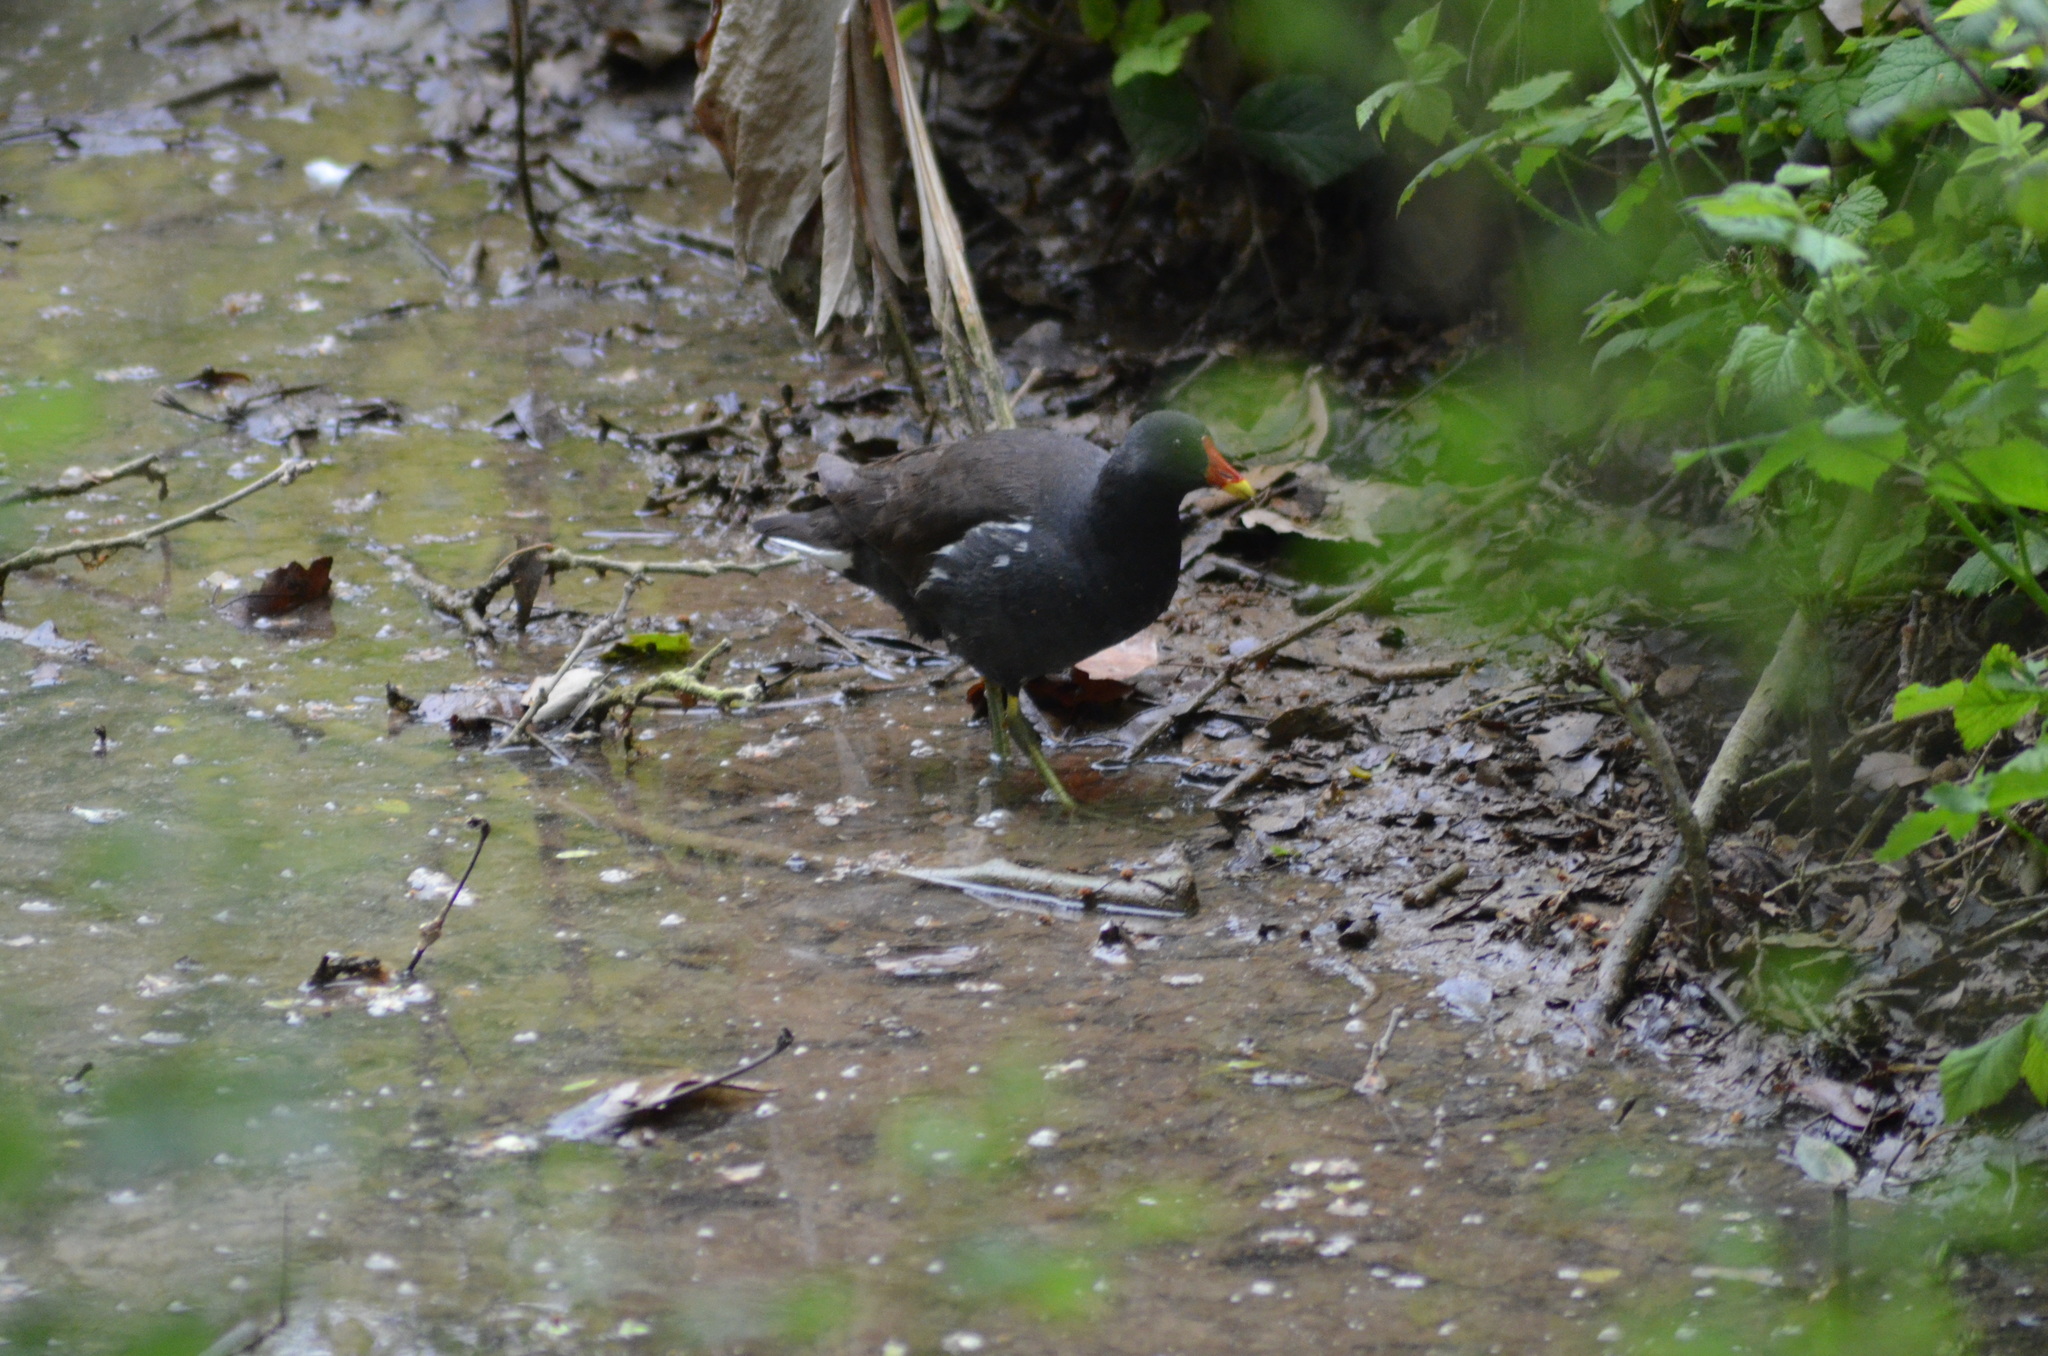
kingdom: Animalia
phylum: Chordata
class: Aves
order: Gruiformes
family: Rallidae
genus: Gallinula
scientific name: Gallinula chloropus
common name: Common moorhen
